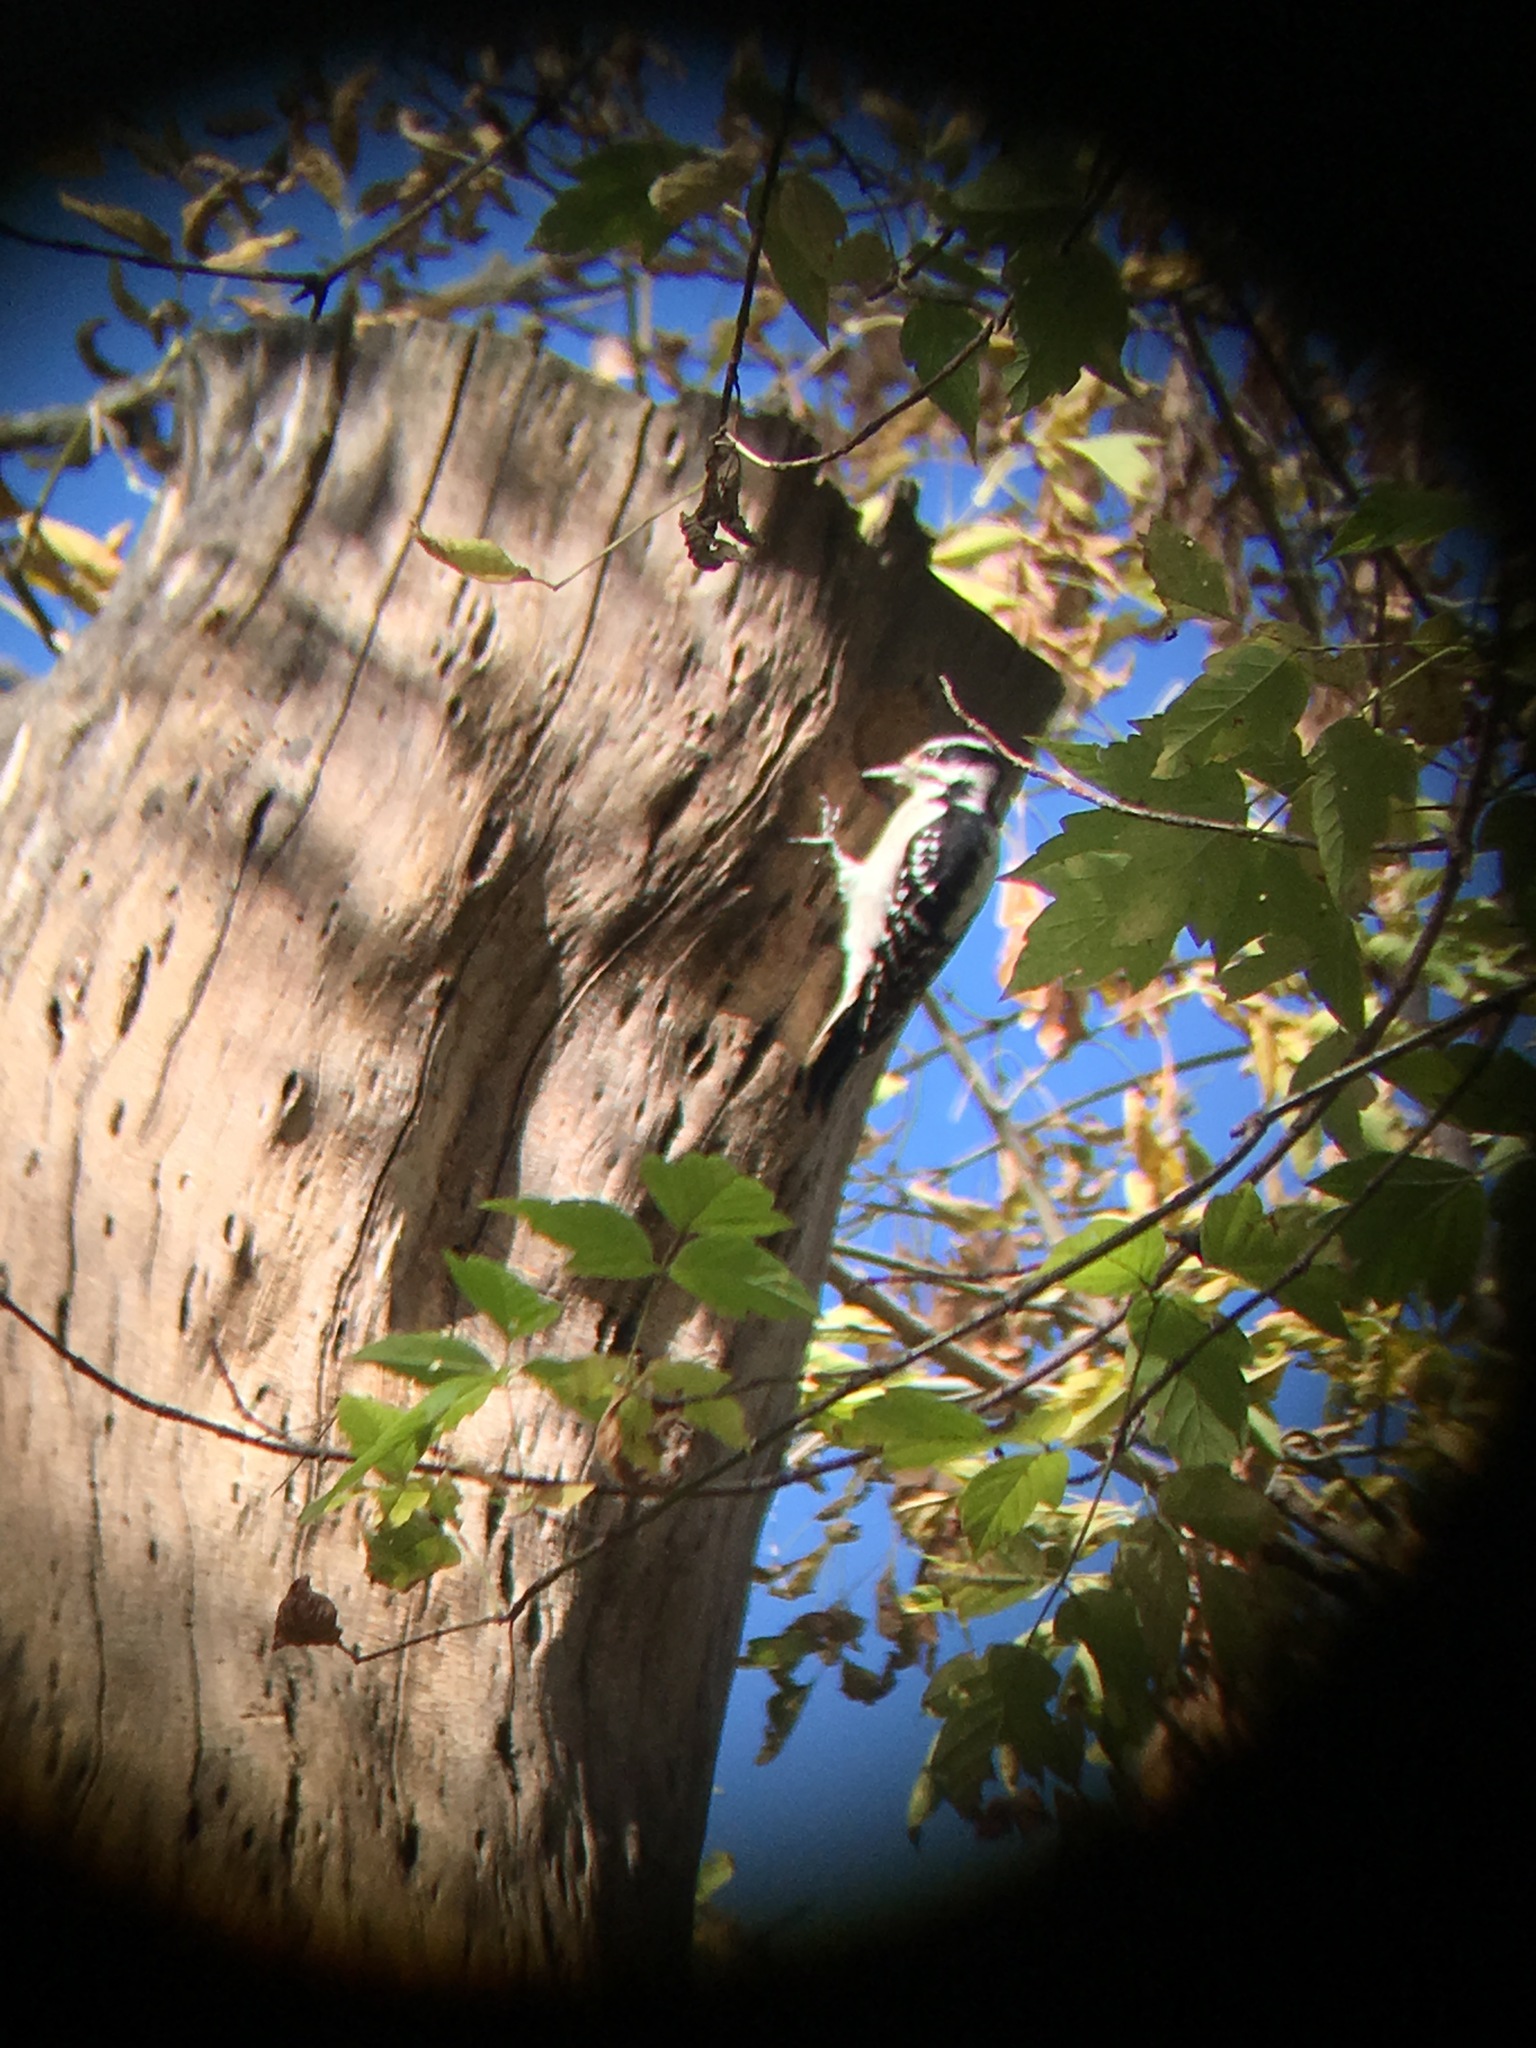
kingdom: Animalia
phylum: Chordata
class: Aves
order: Piciformes
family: Picidae
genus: Leuconotopicus
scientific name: Leuconotopicus villosus
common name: Hairy woodpecker
